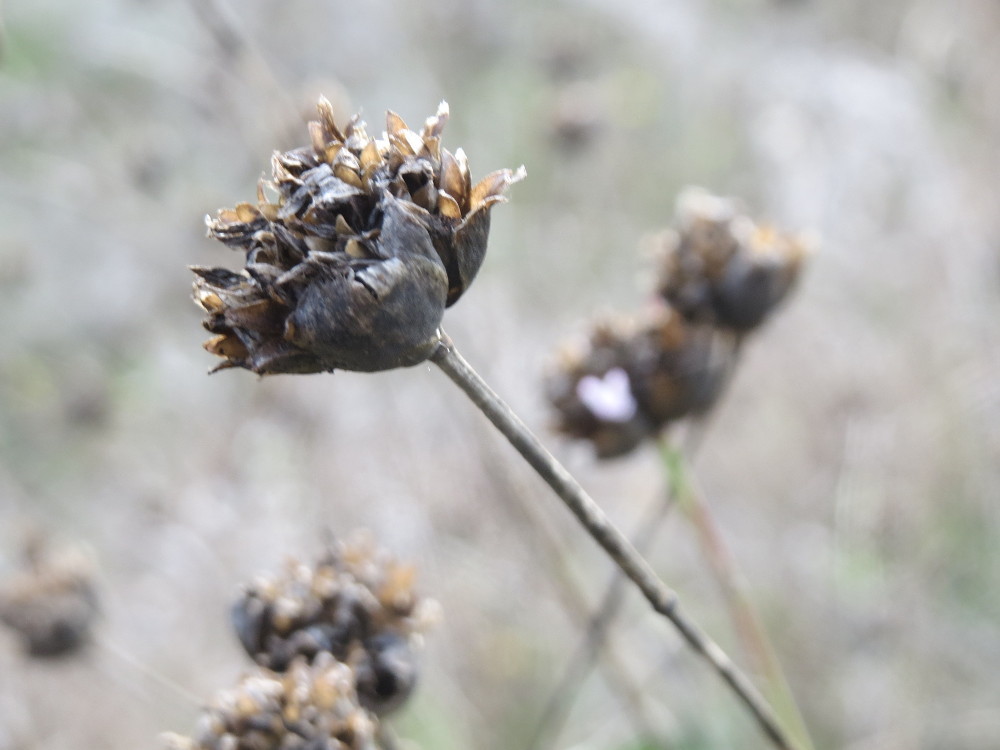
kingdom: Plantae
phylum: Tracheophyta
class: Magnoliopsida
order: Caryophyllales
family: Caryophyllaceae
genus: Petrorhagia
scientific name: Petrorhagia prolifera
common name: Proliferous pink
